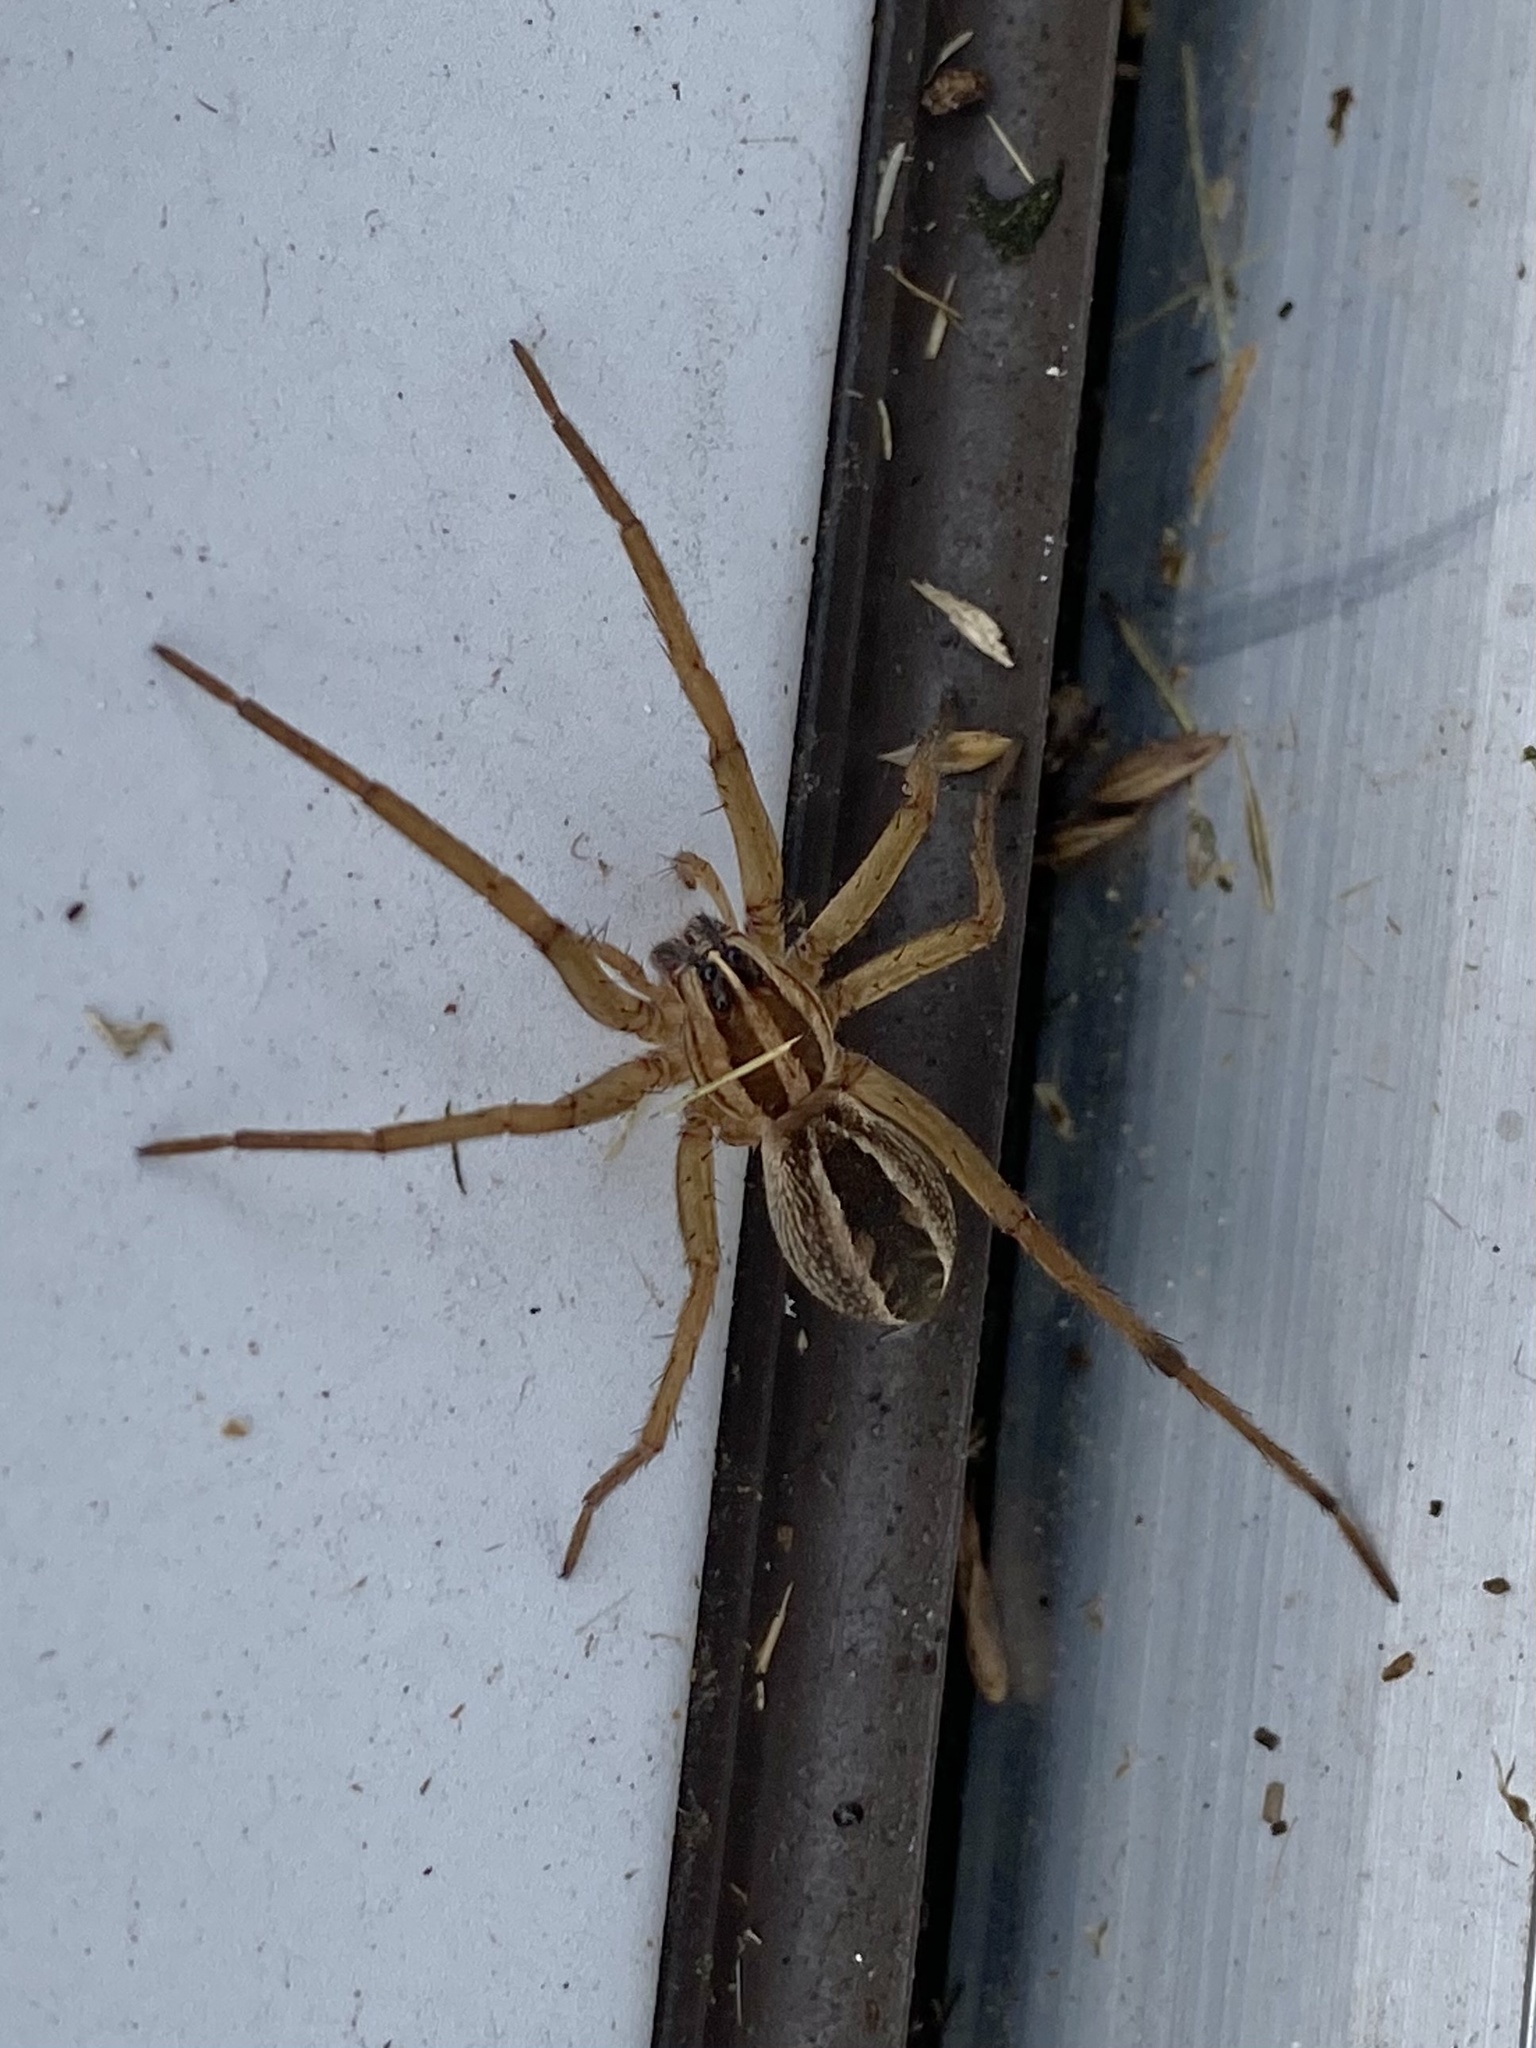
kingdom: Animalia
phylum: Arthropoda
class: Arachnida
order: Araneae
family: Lycosidae
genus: Rabidosa
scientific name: Rabidosa rabida
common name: Rabid wolf spider
